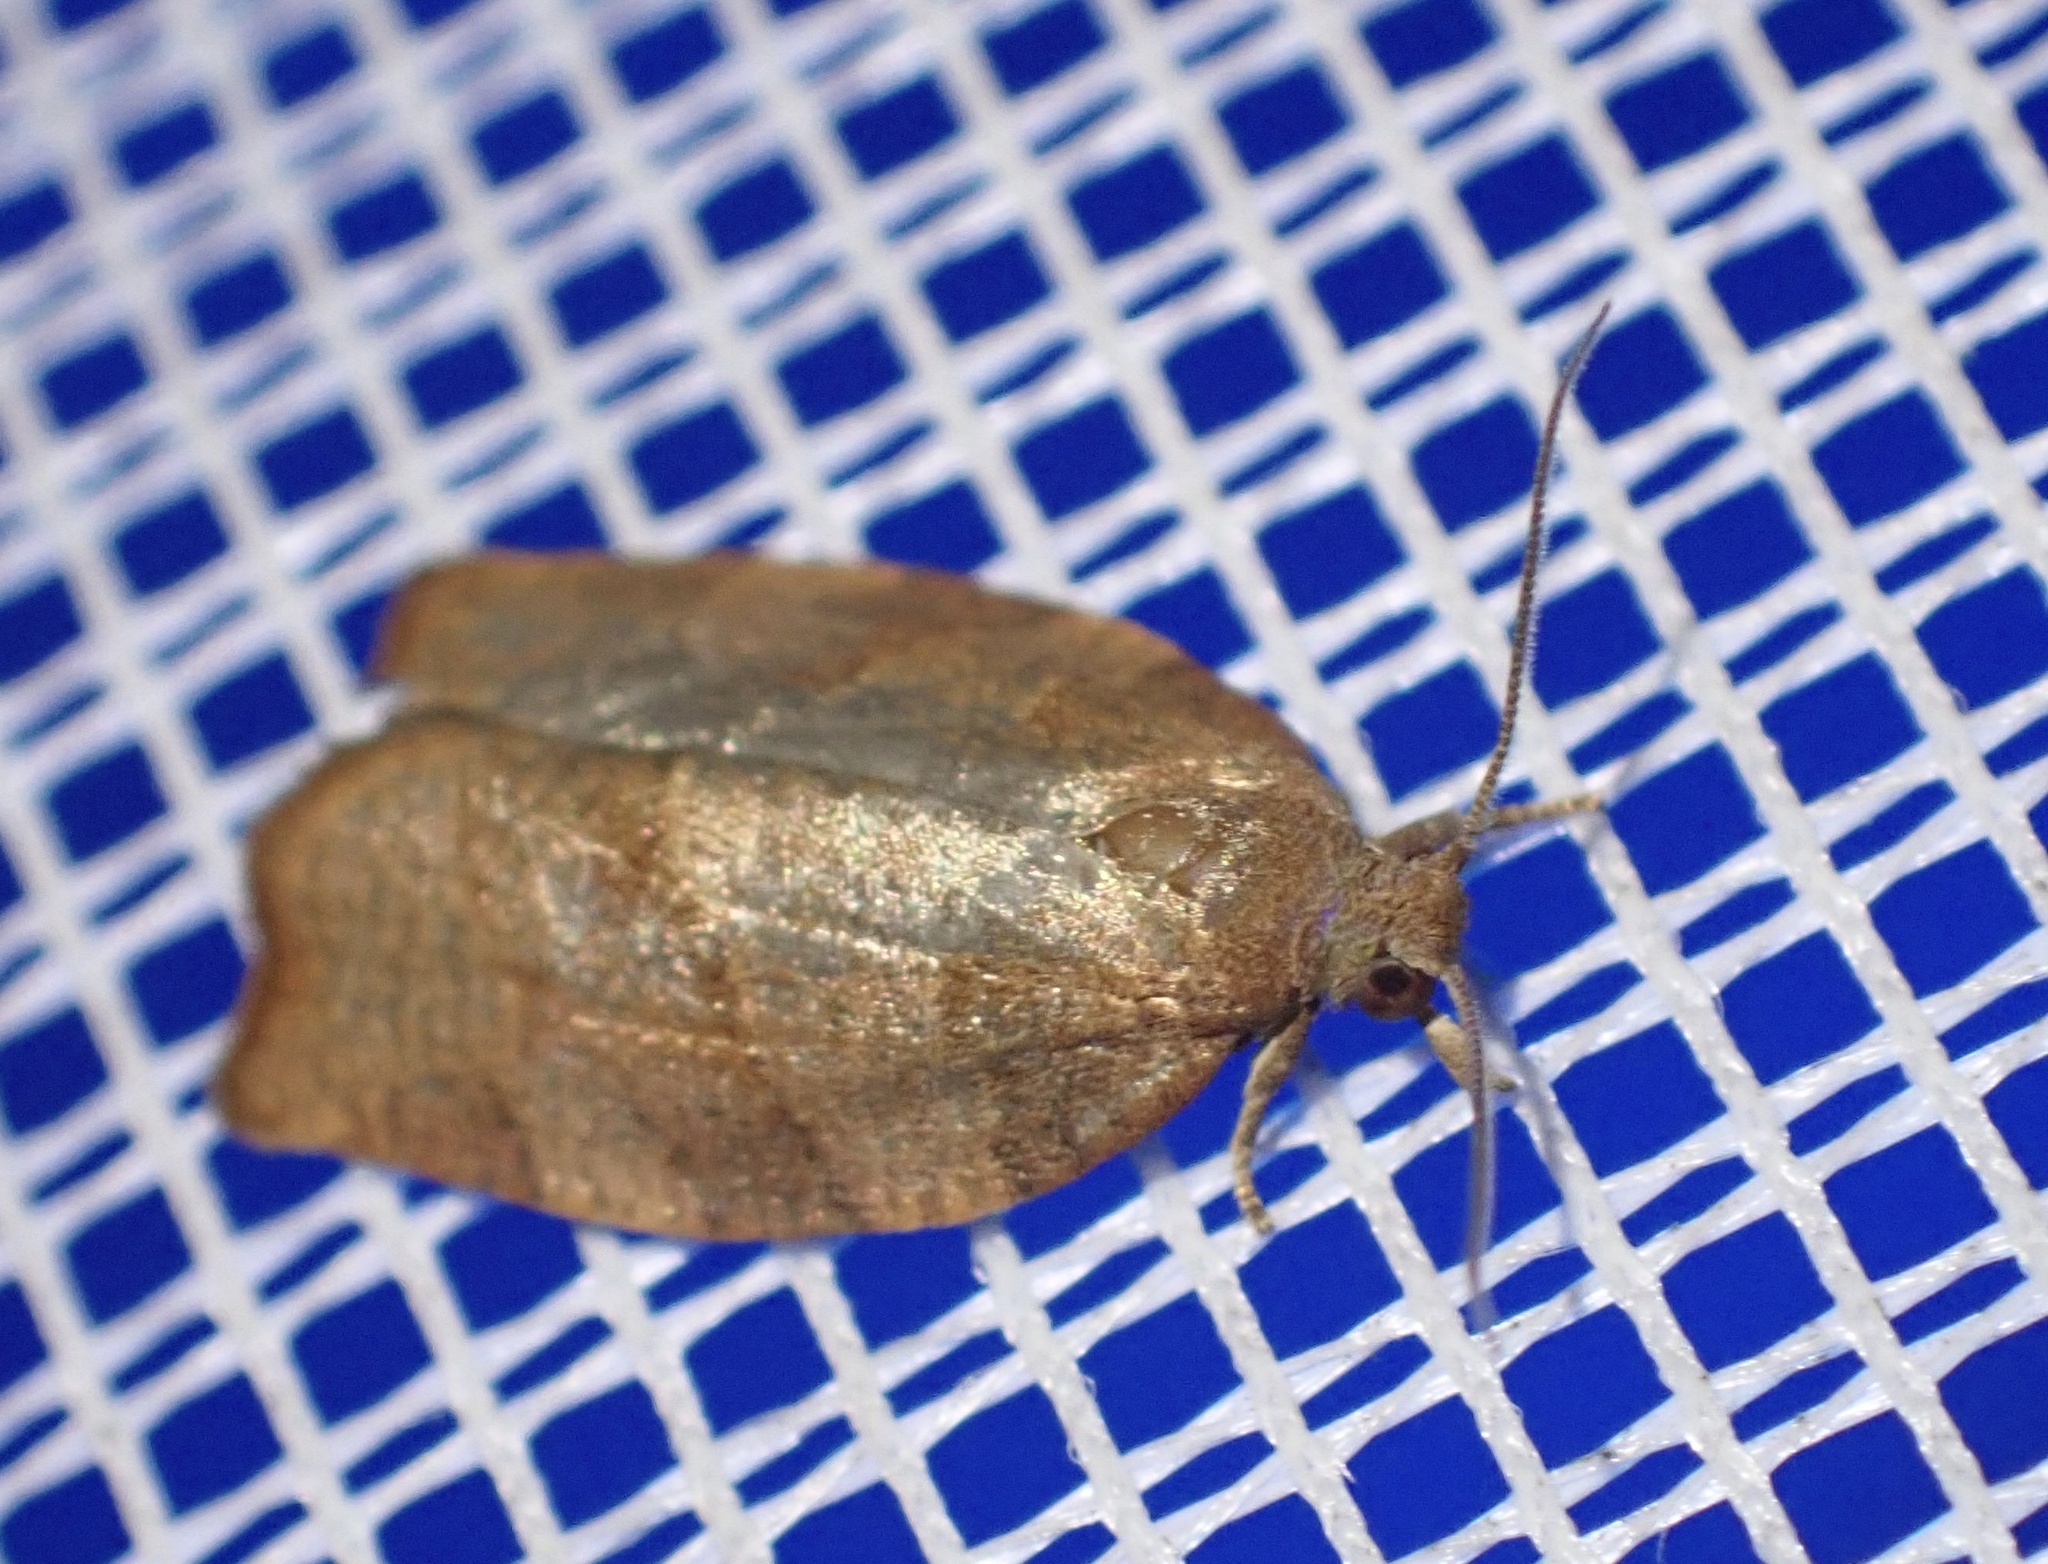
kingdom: Animalia
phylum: Arthropoda
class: Insecta
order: Lepidoptera
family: Tortricidae
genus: Pandemis
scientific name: Pandemis heparana
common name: Dark fruit-tree tortrix
